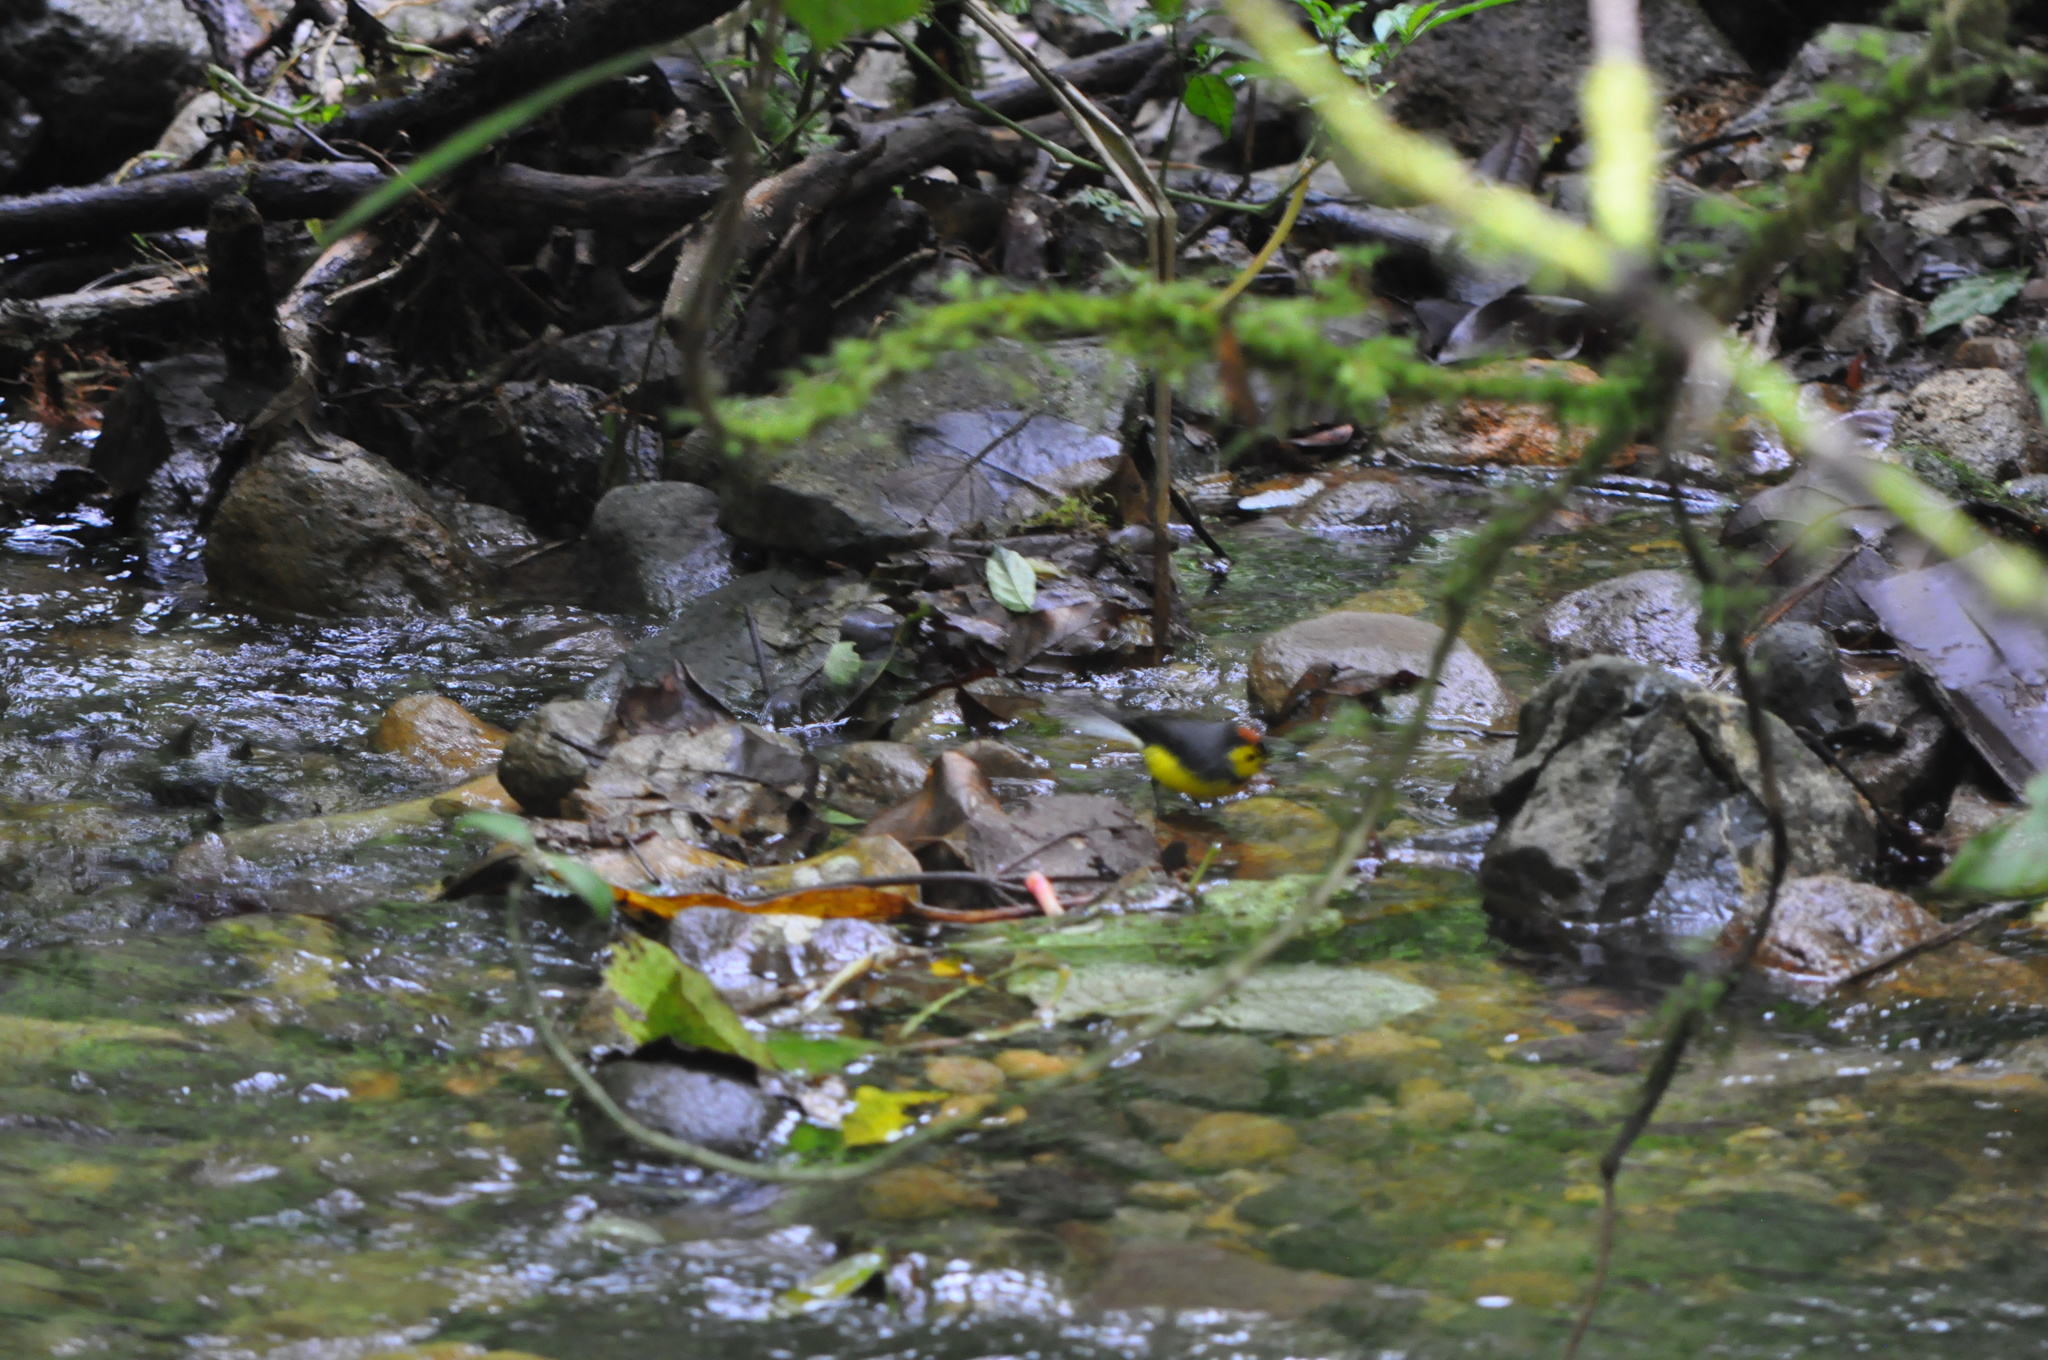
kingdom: Animalia
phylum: Chordata
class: Aves
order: Passeriformes
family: Parulidae
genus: Myioborus
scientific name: Myioborus torquatus
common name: Collared whitestart
